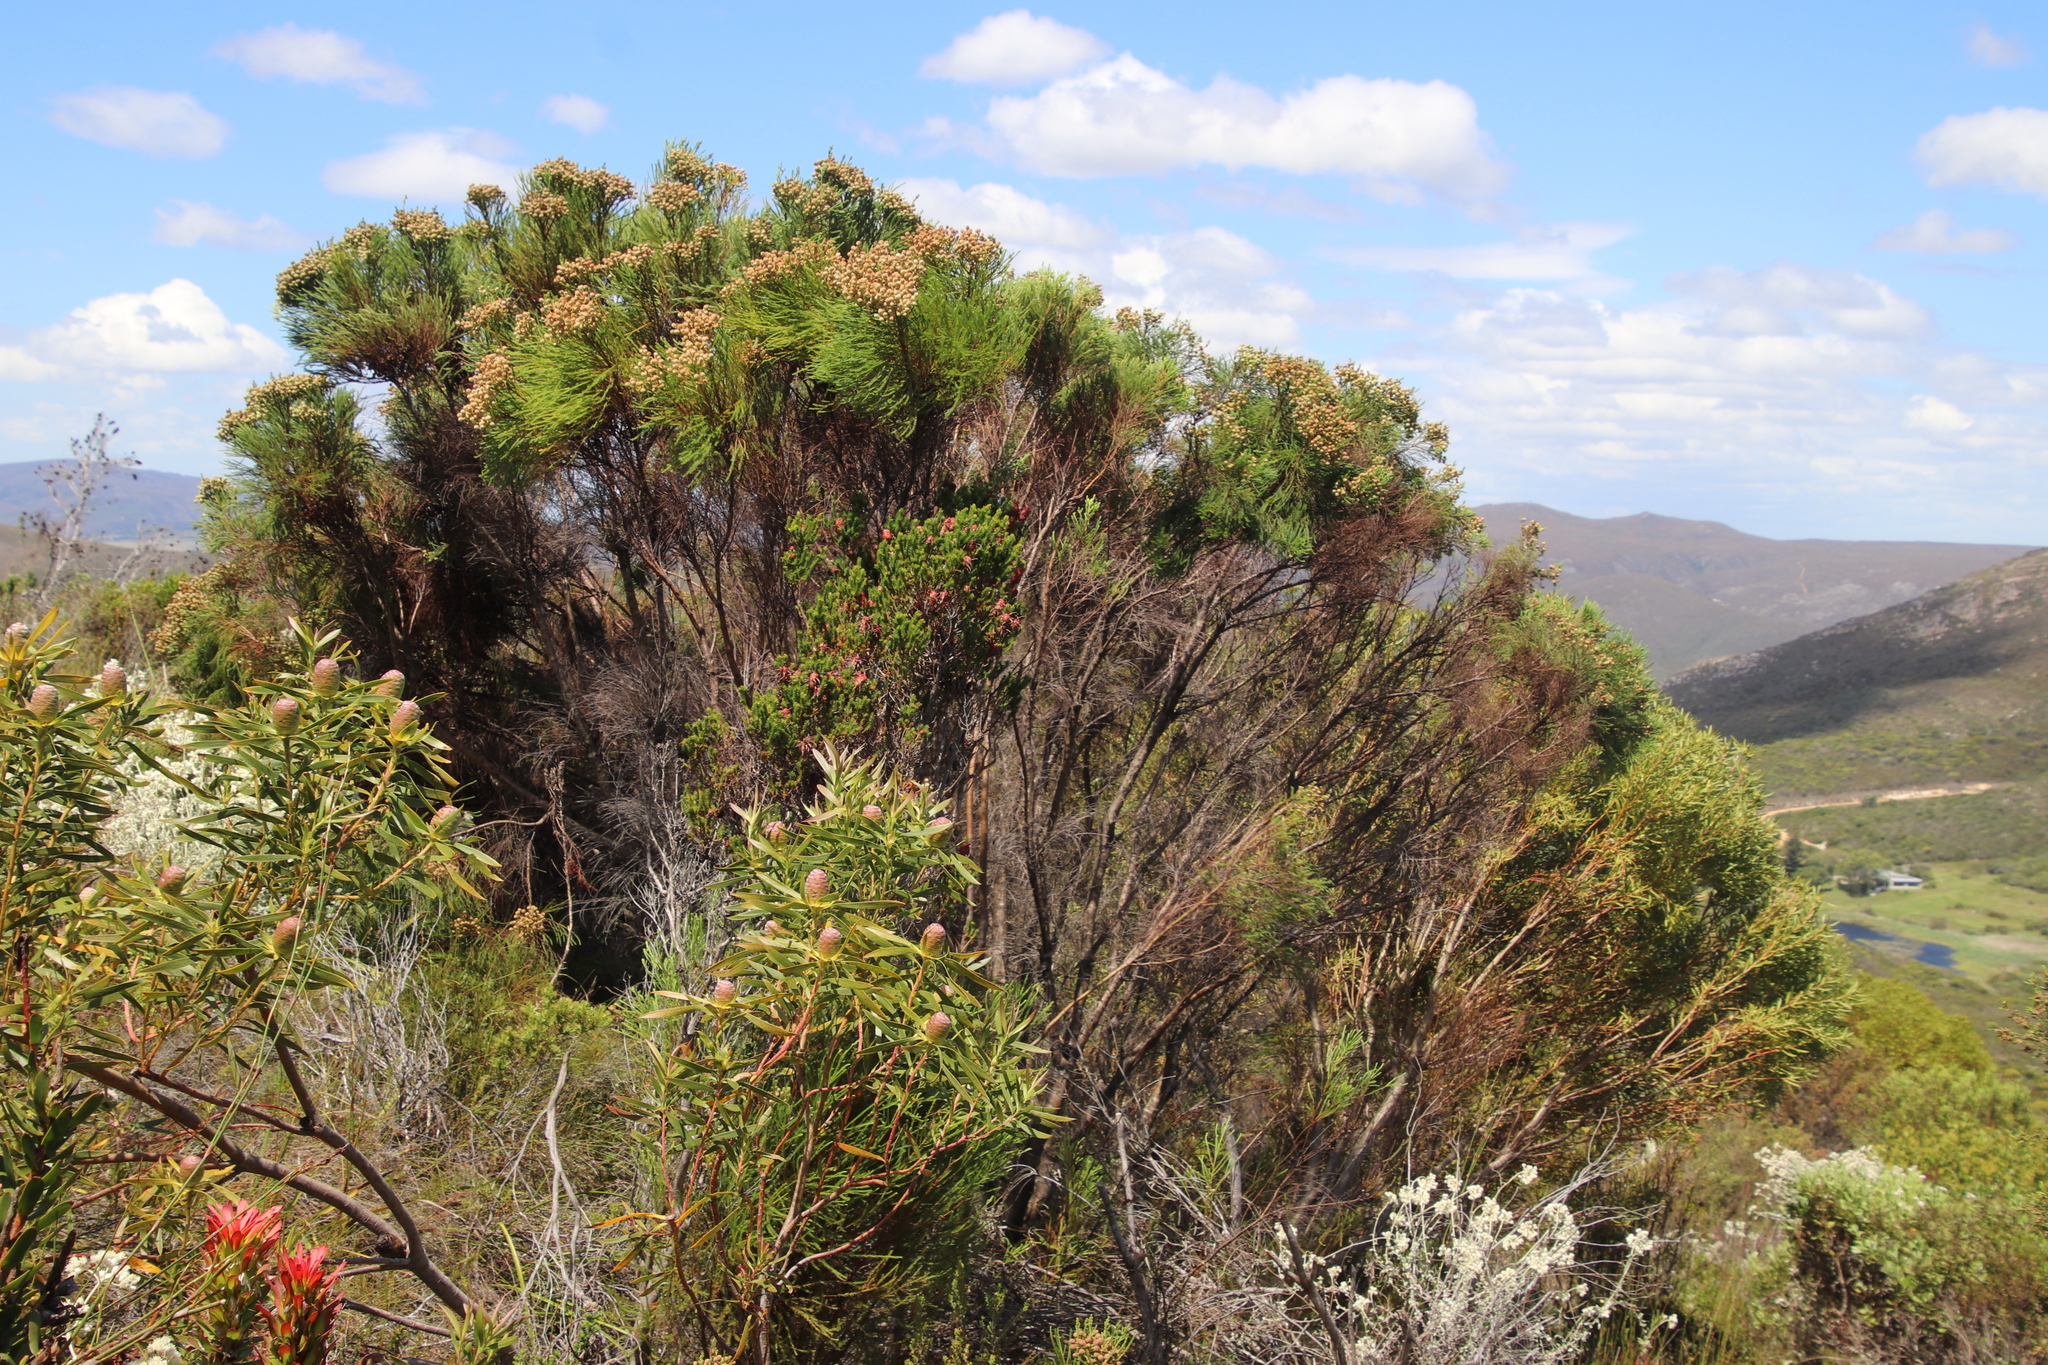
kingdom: Plantae
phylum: Tracheophyta
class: Magnoliopsida
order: Bruniales
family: Bruniaceae
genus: Berzelia
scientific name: Berzelia lanuginosa
